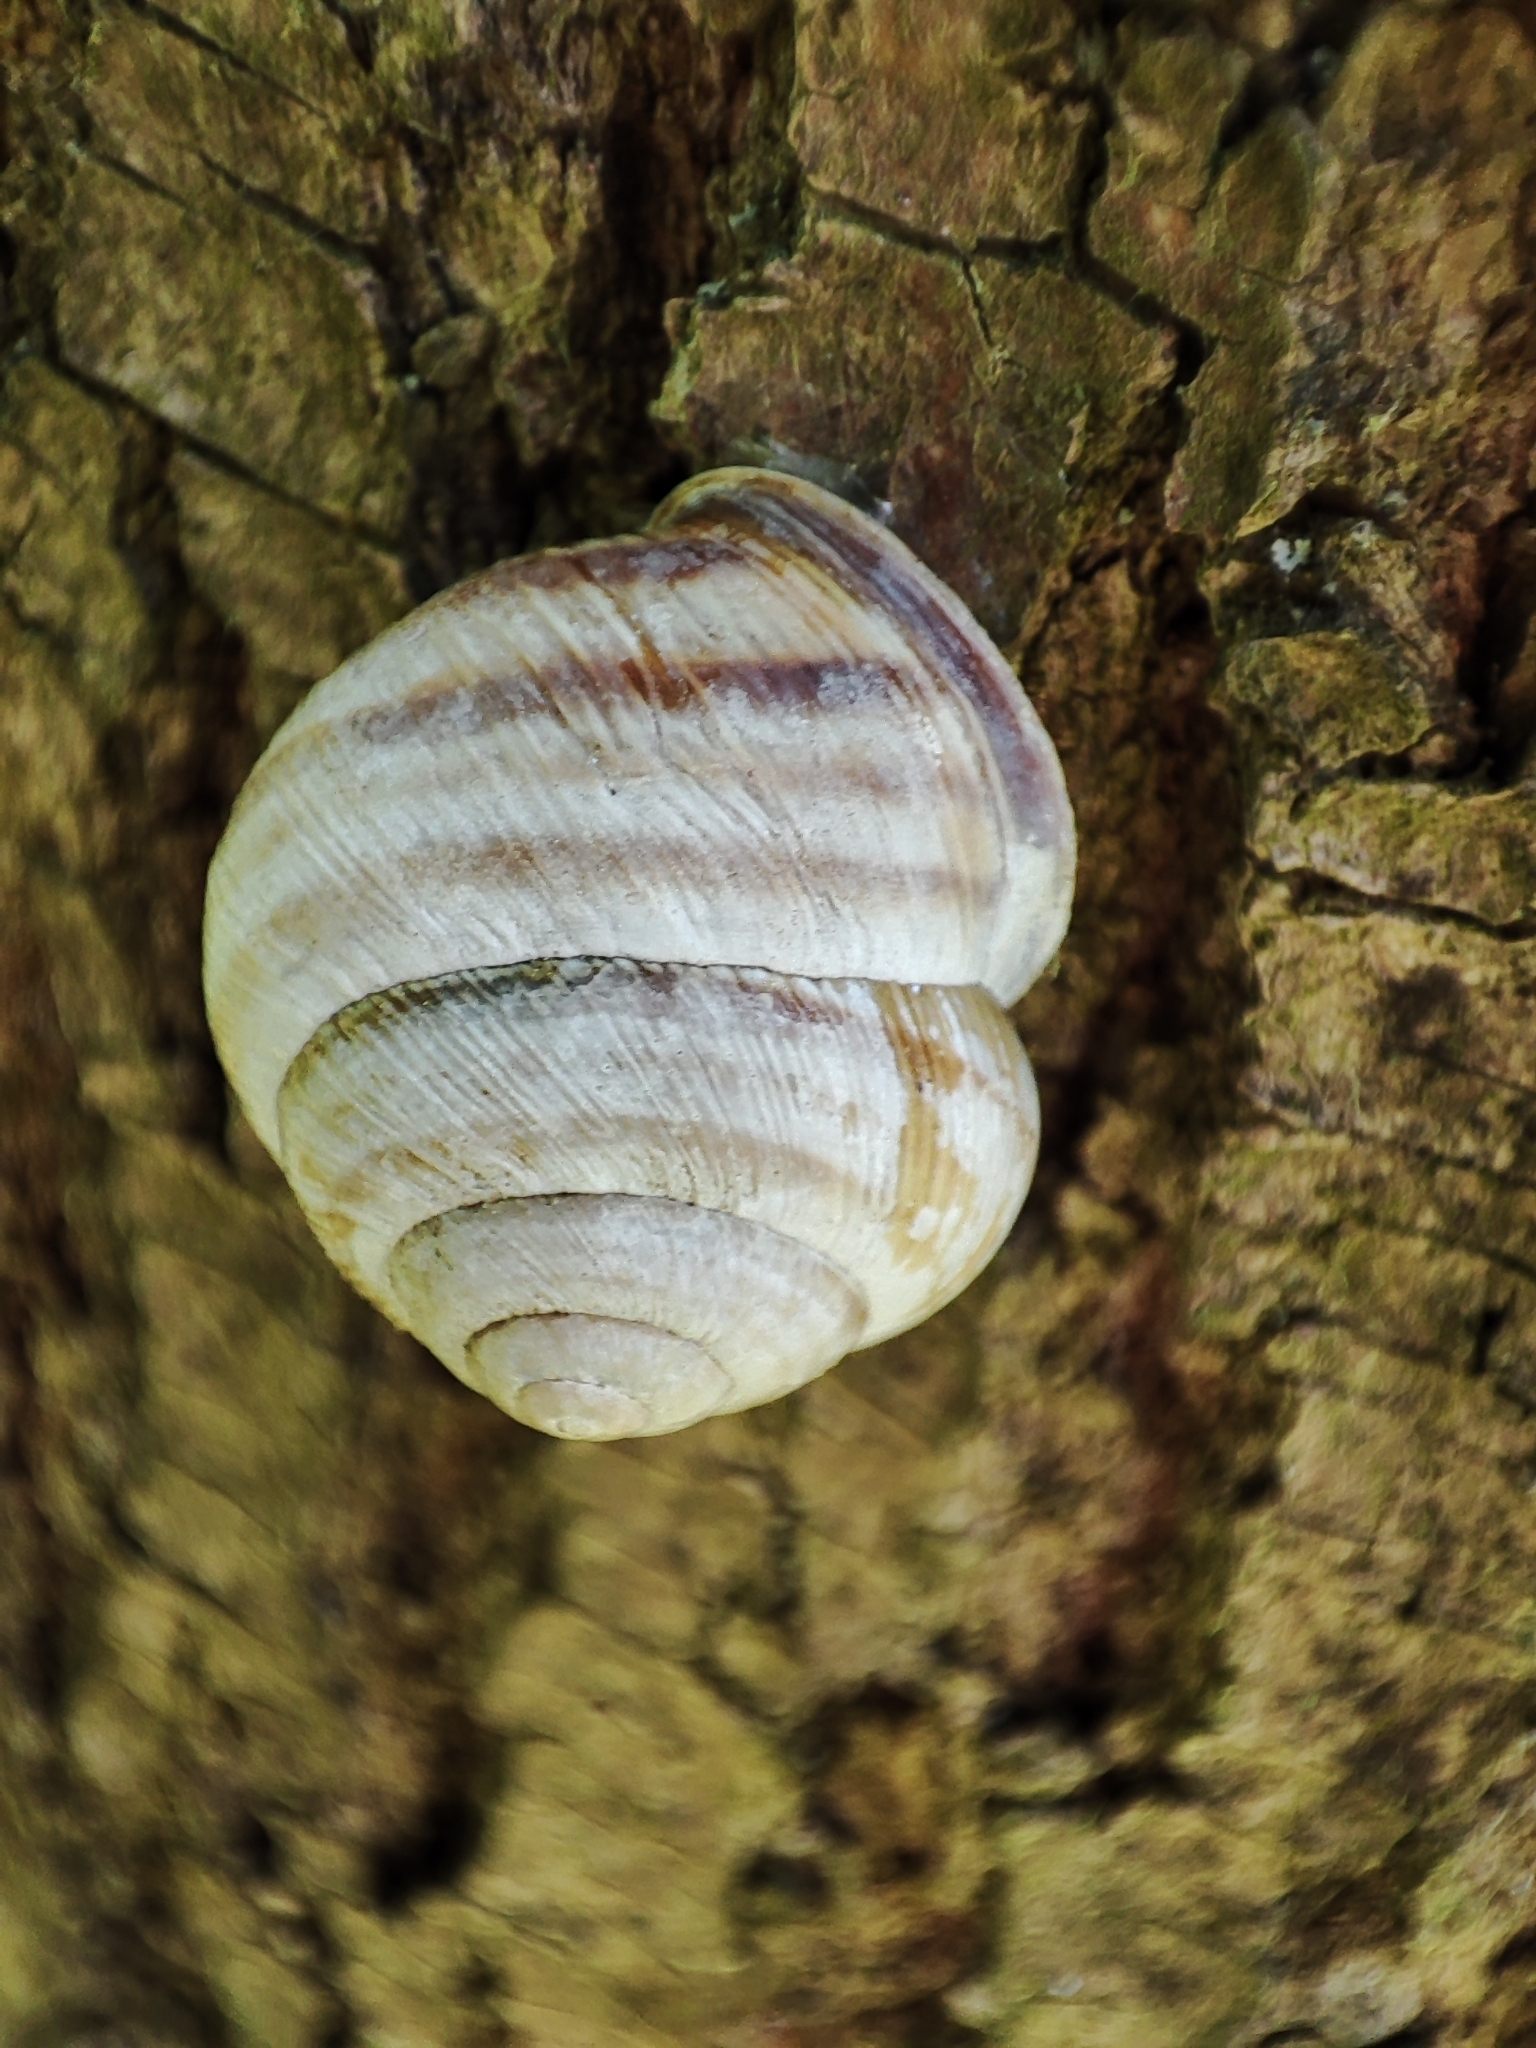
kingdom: Animalia
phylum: Mollusca
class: Gastropoda
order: Stylommatophora
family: Helicidae
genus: Caucasotachea
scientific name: Caucasotachea vindobonensis
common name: European helicid land snail
